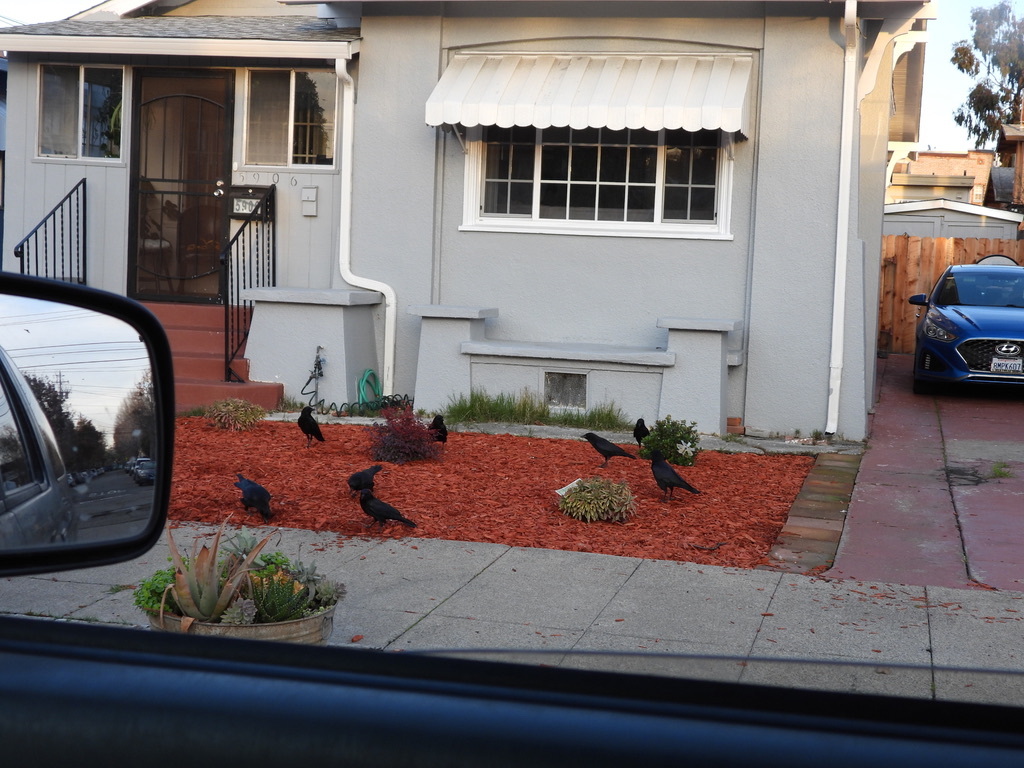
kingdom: Animalia
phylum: Chordata
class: Aves
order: Passeriformes
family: Corvidae
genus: Corvus
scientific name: Corvus brachyrhynchos
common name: American crow
